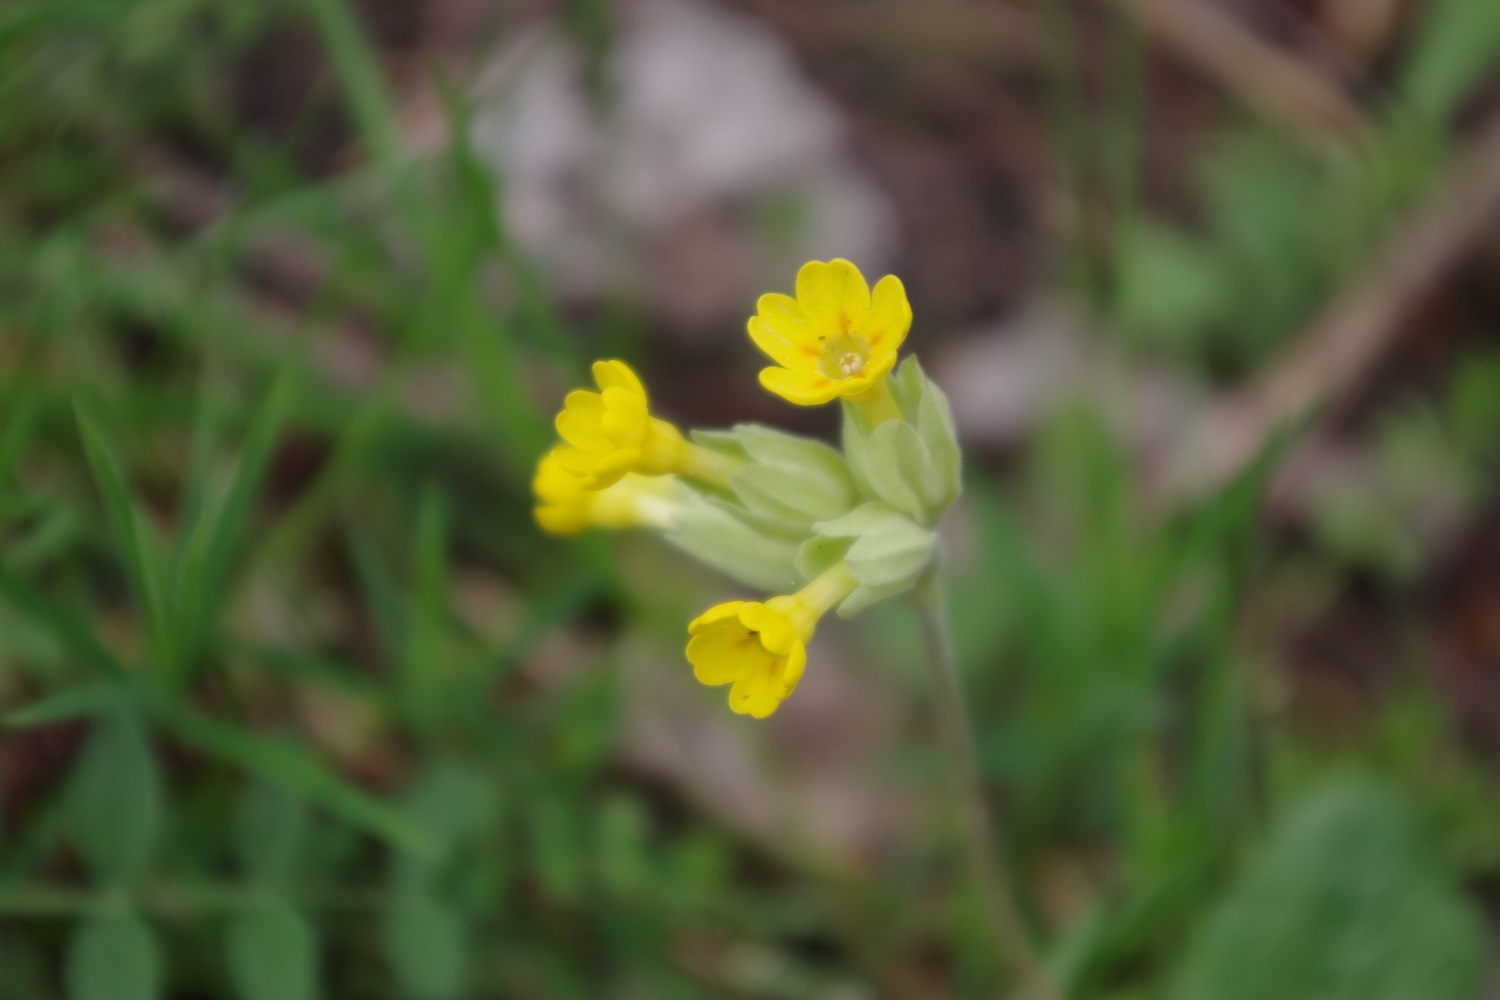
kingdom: Plantae
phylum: Tracheophyta
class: Magnoliopsida
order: Ericales
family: Primulaceae
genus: Primula
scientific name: Primula veris
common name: Cowslip
